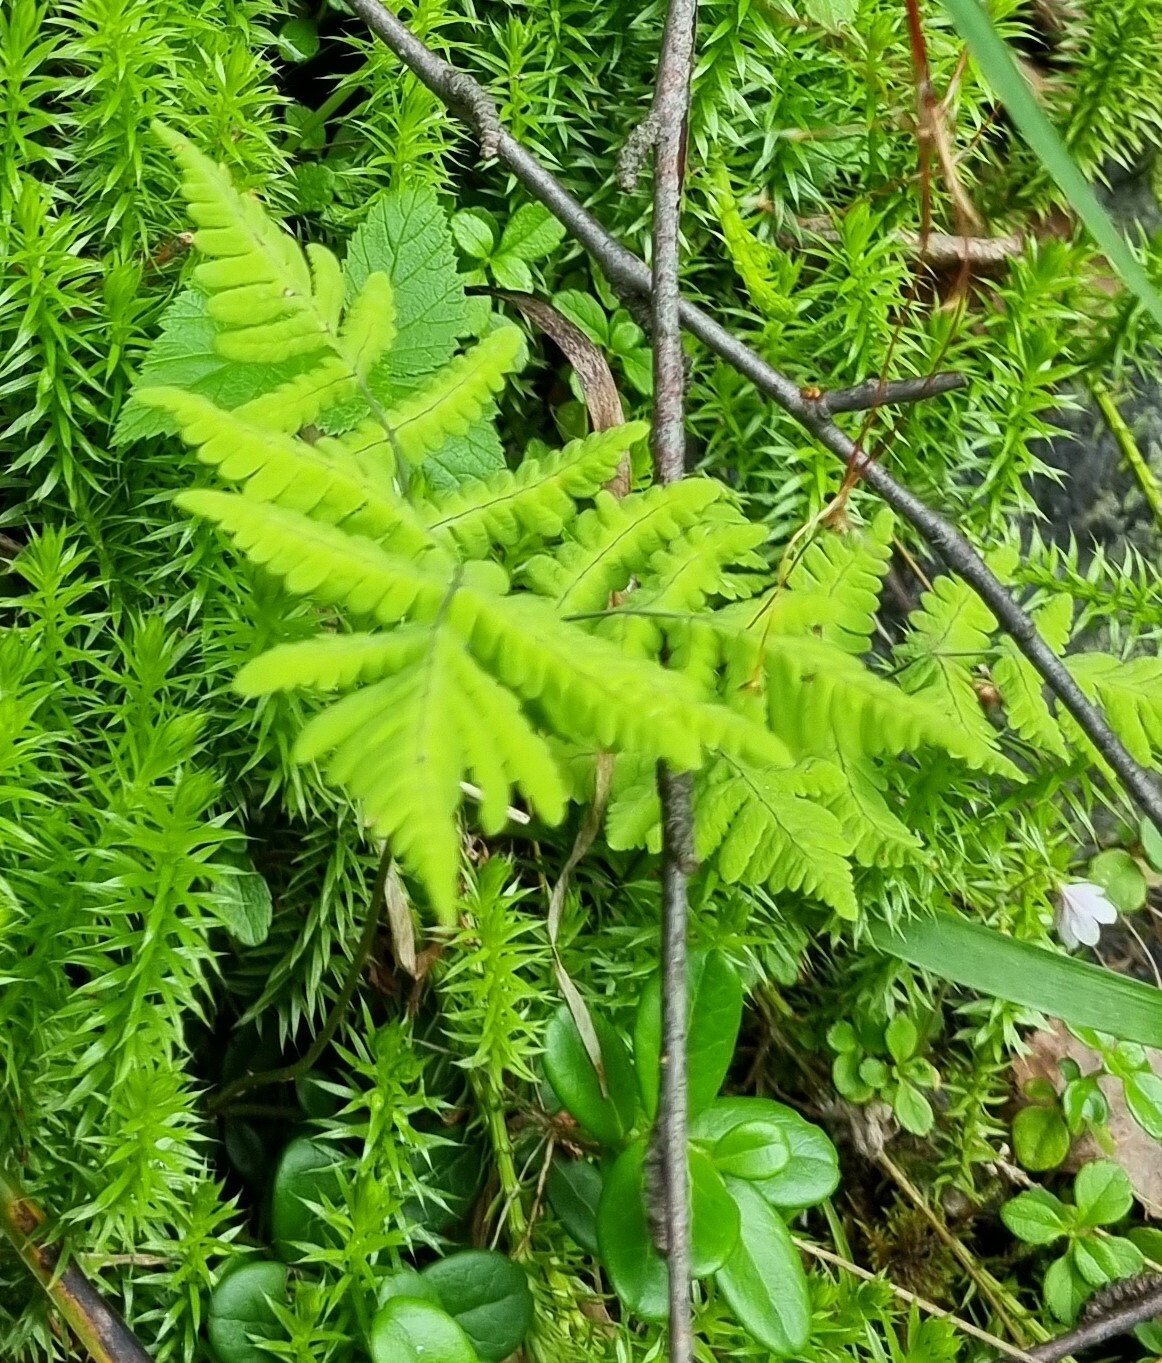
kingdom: Plantae
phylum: Tracheophyta
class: Polypodiopsida
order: Polypodiales
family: Cystopteridaceae
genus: Gymnocarpium
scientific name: Gymnocarpium dryopteris
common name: Oak fern
